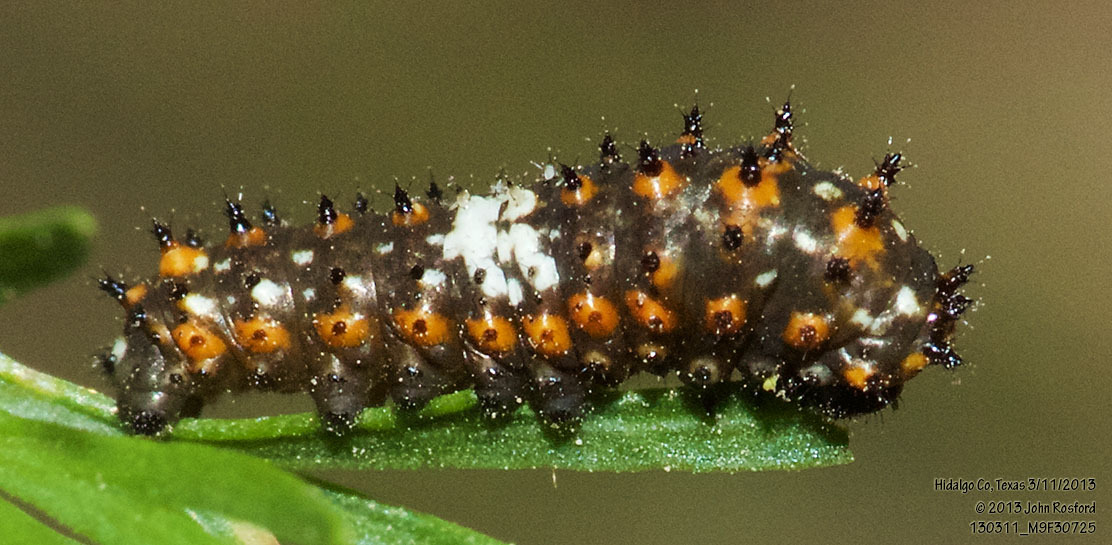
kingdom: Animalia
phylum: Arthropoda
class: Insecta
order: Lepidoptera
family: Papilionidae
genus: Papilio
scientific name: Papilio polyxenes
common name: Black swallowtail
